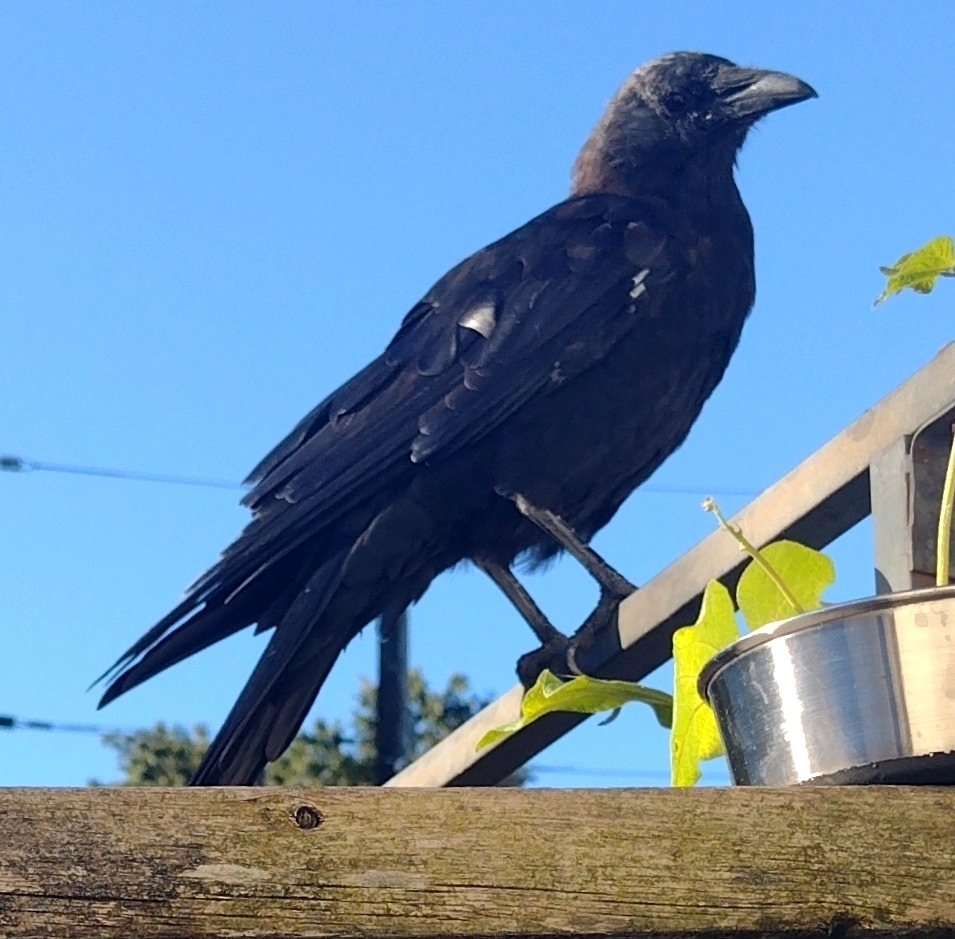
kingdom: Animalia
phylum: Chordata
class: Aves
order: Passeriformes
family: Corvidae
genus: Corvus
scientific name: Corvus brachyrhynchos
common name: American crow
